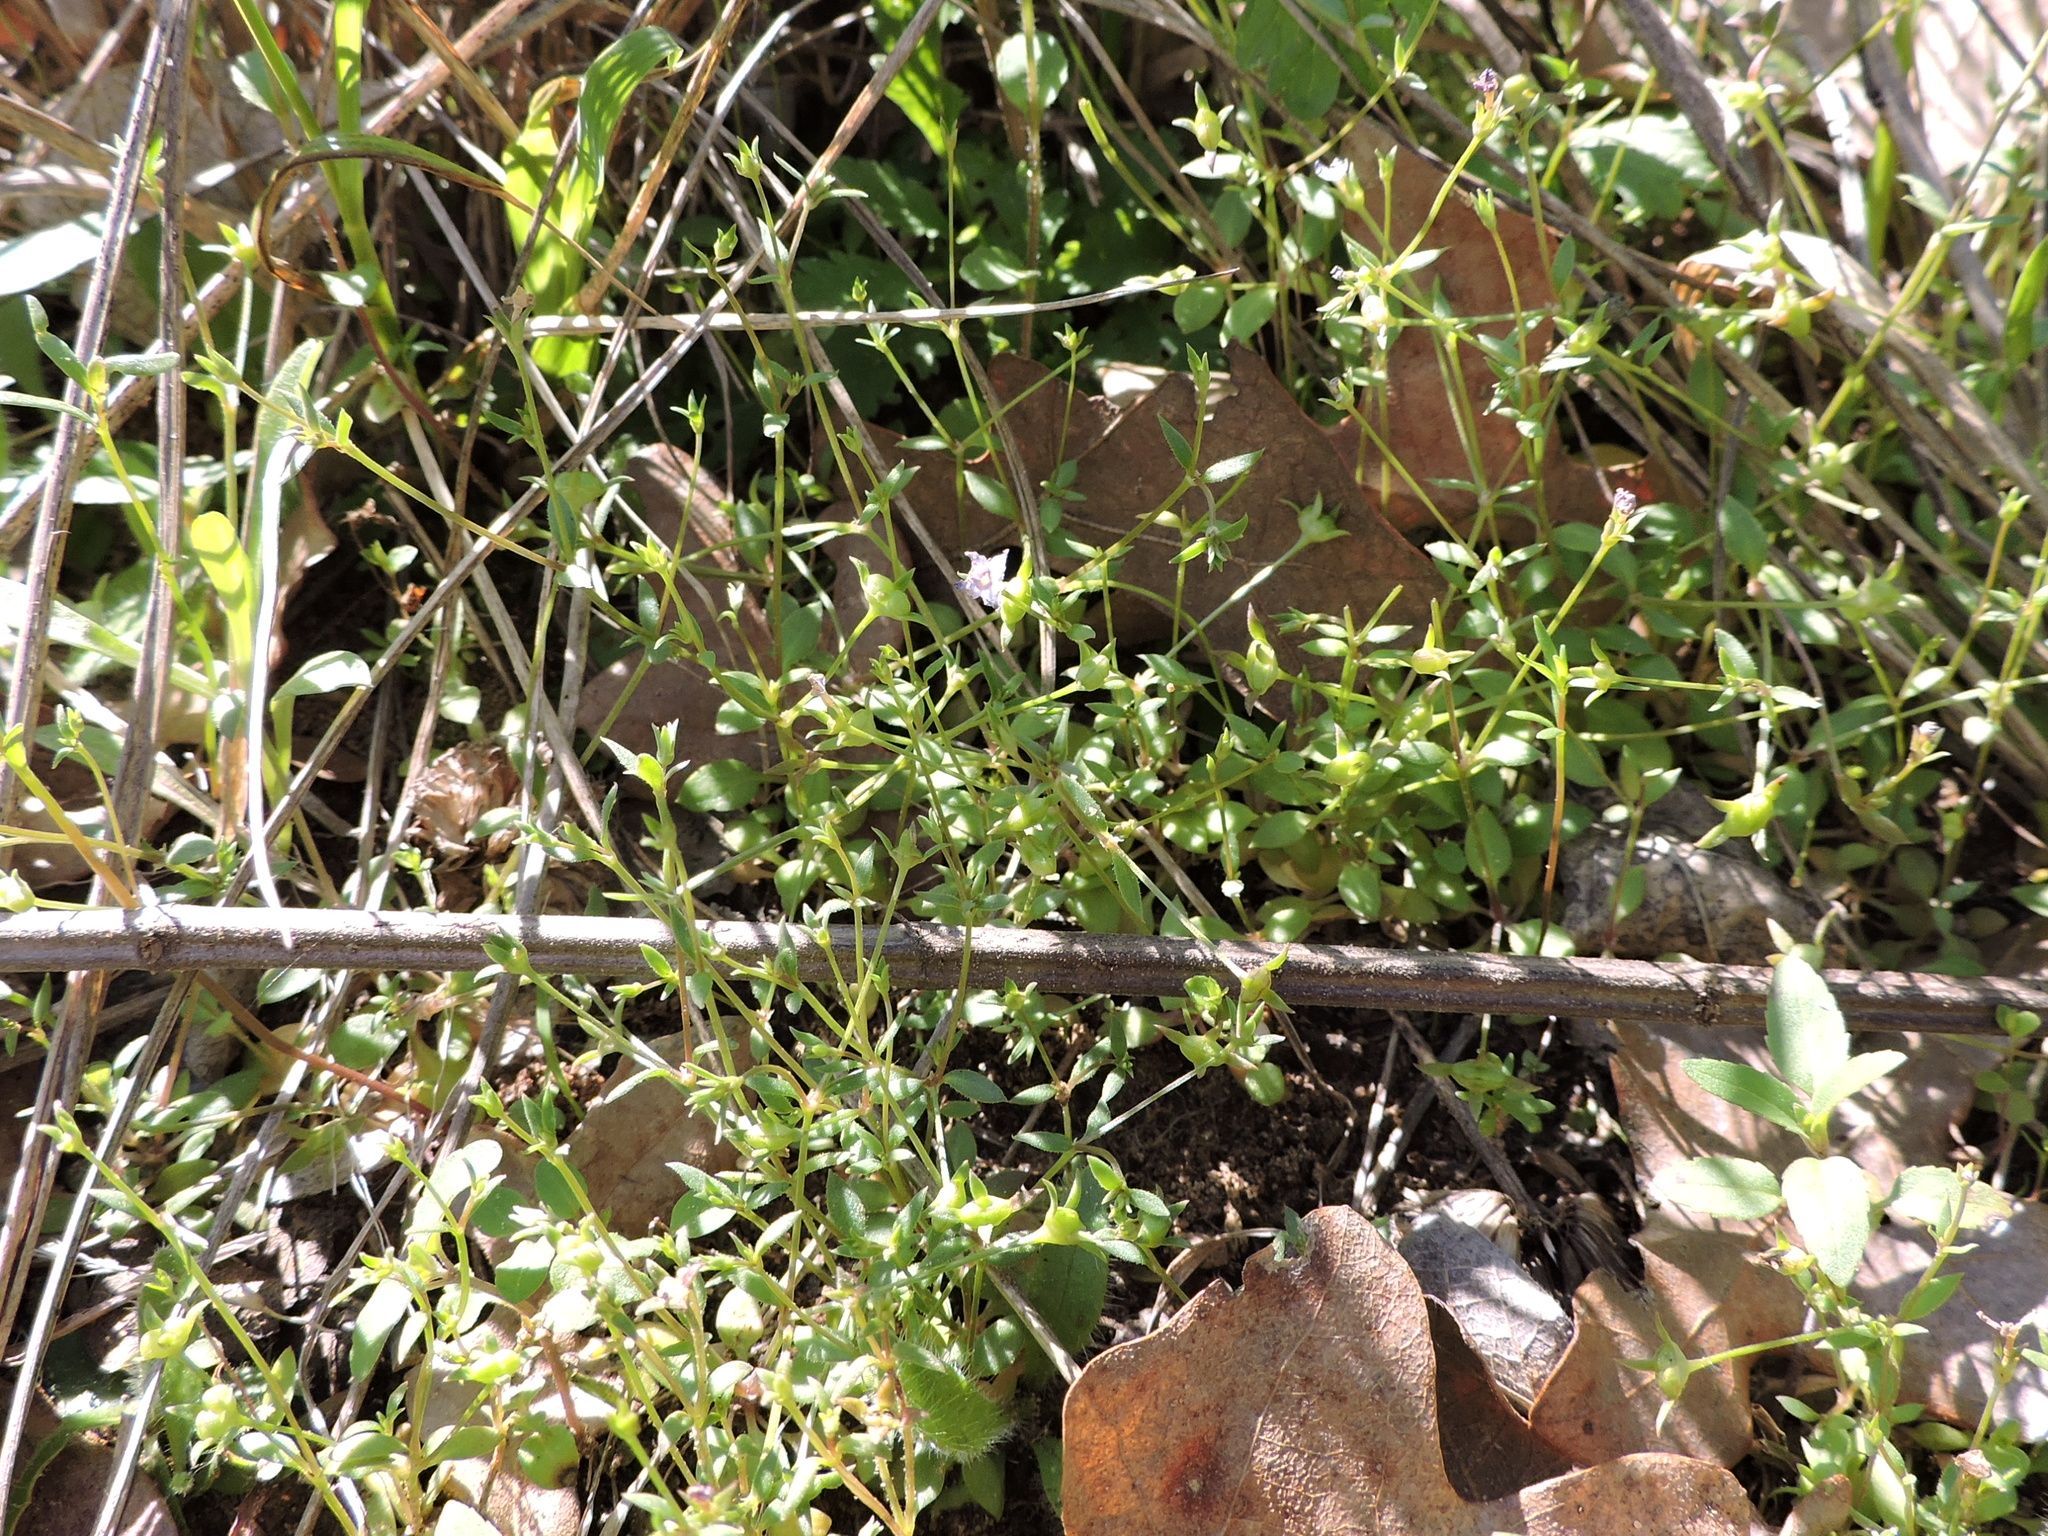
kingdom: Plantae
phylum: Tracheophyta
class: Magnoliopsida
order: Gentianales
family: Rubiaceae
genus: Houstonia
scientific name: Houstonia pusilla
